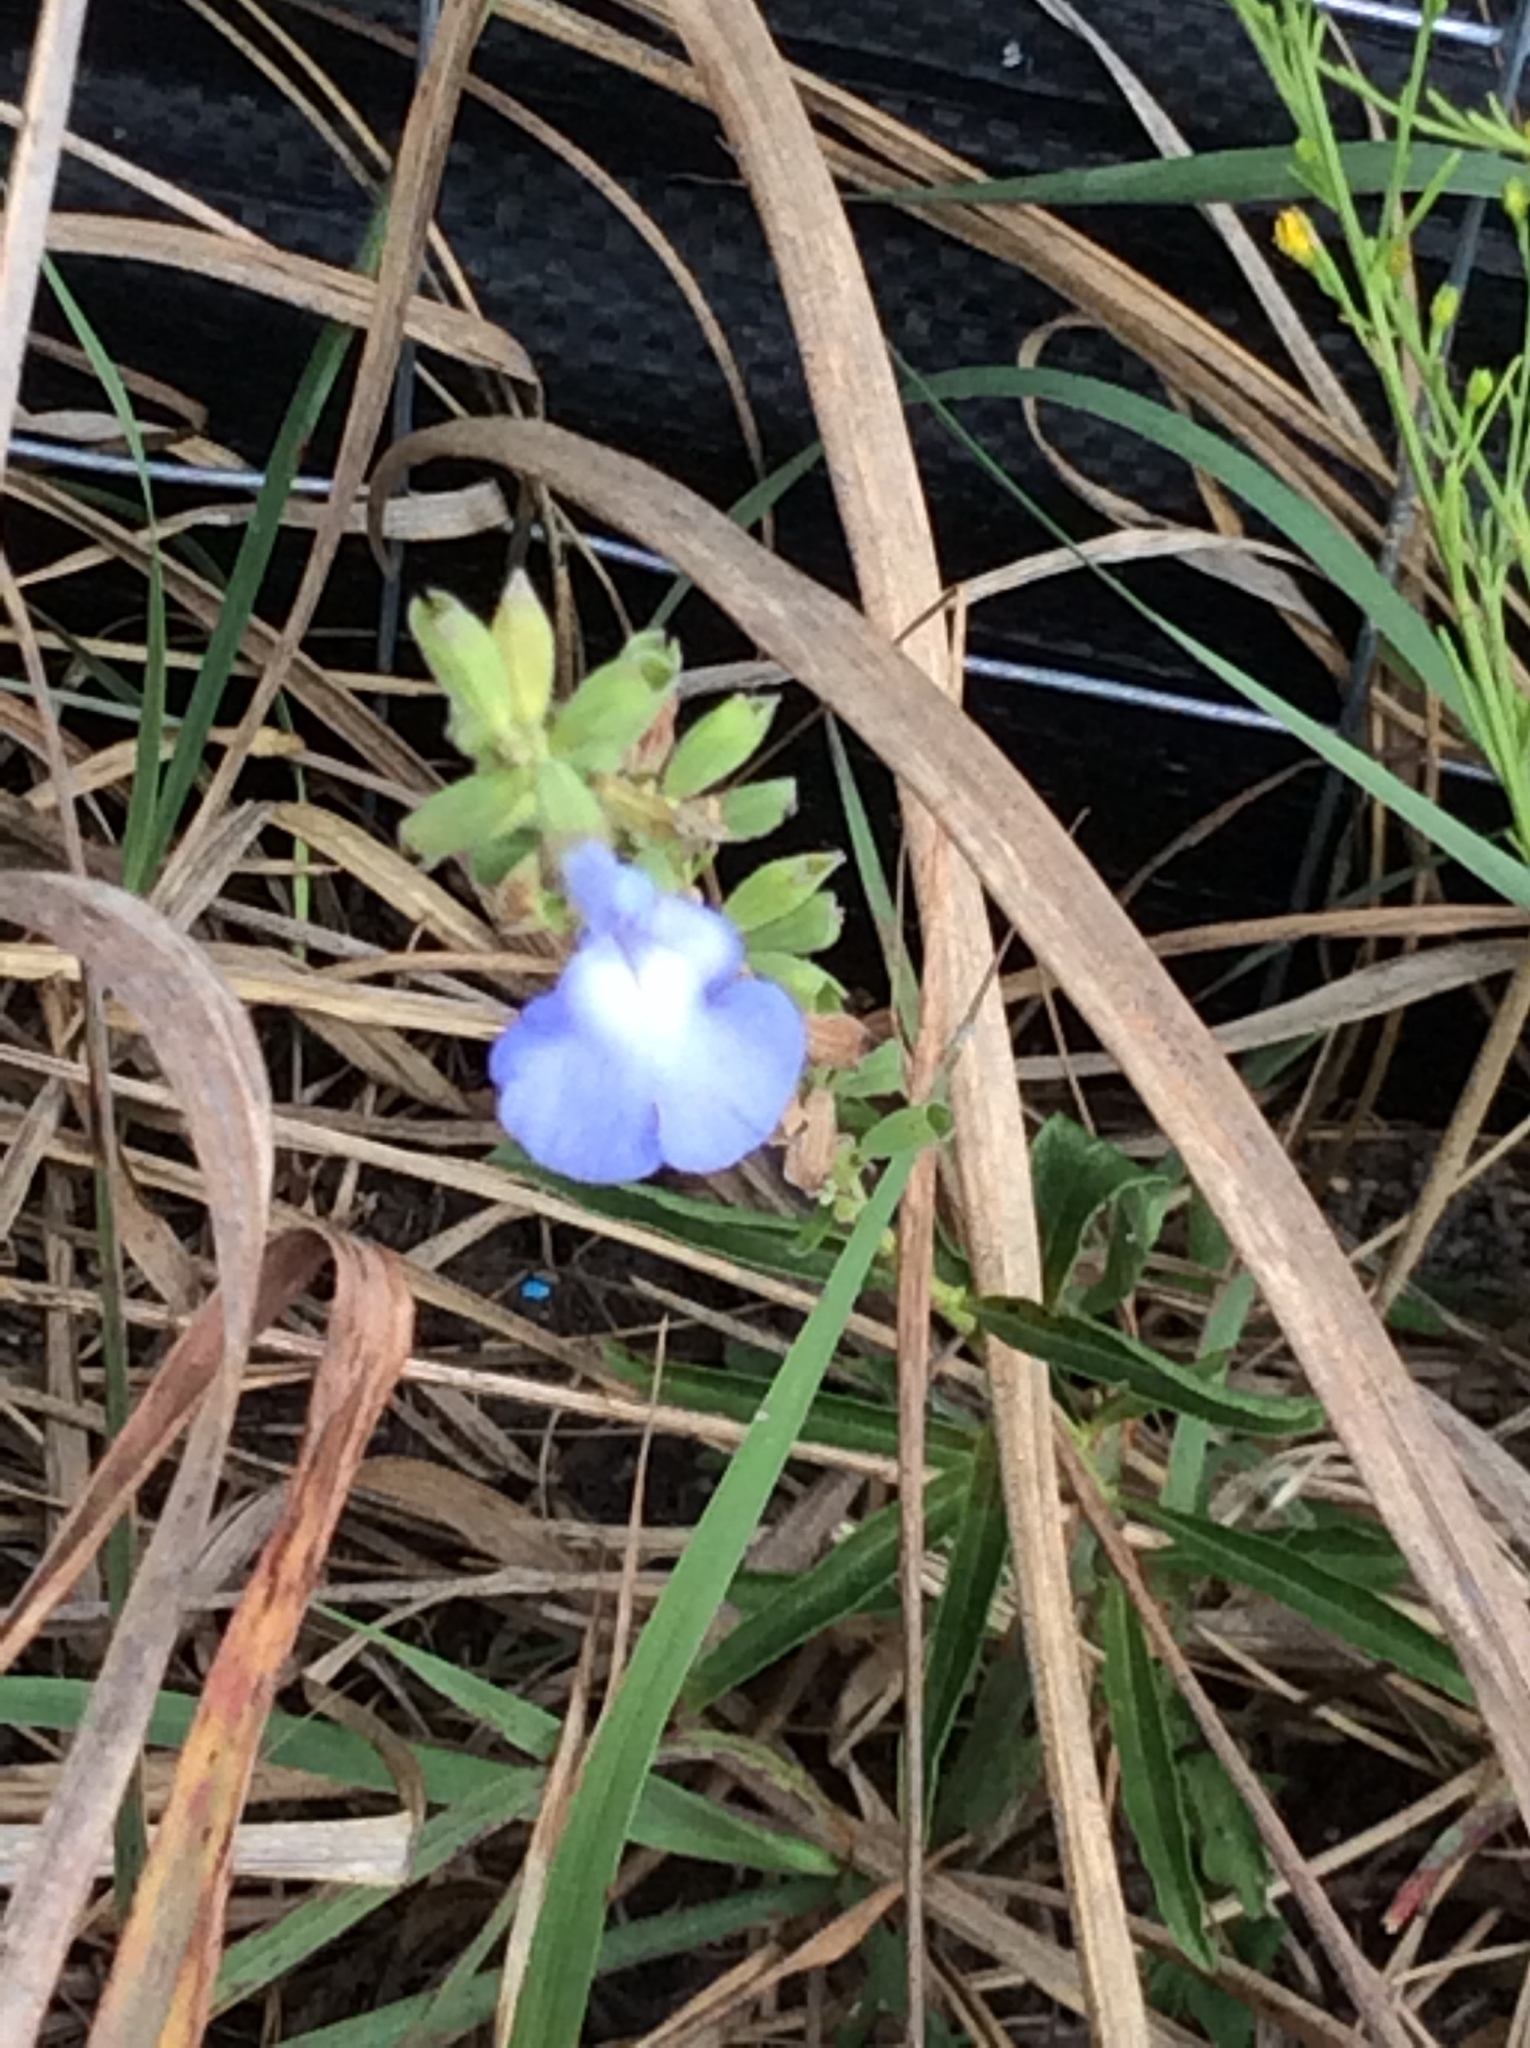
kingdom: Plantae
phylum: Tracheophyta
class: Magnoliopsida
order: Lamiales
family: Lamiaceae
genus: Salvia
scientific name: Salvia azurea
